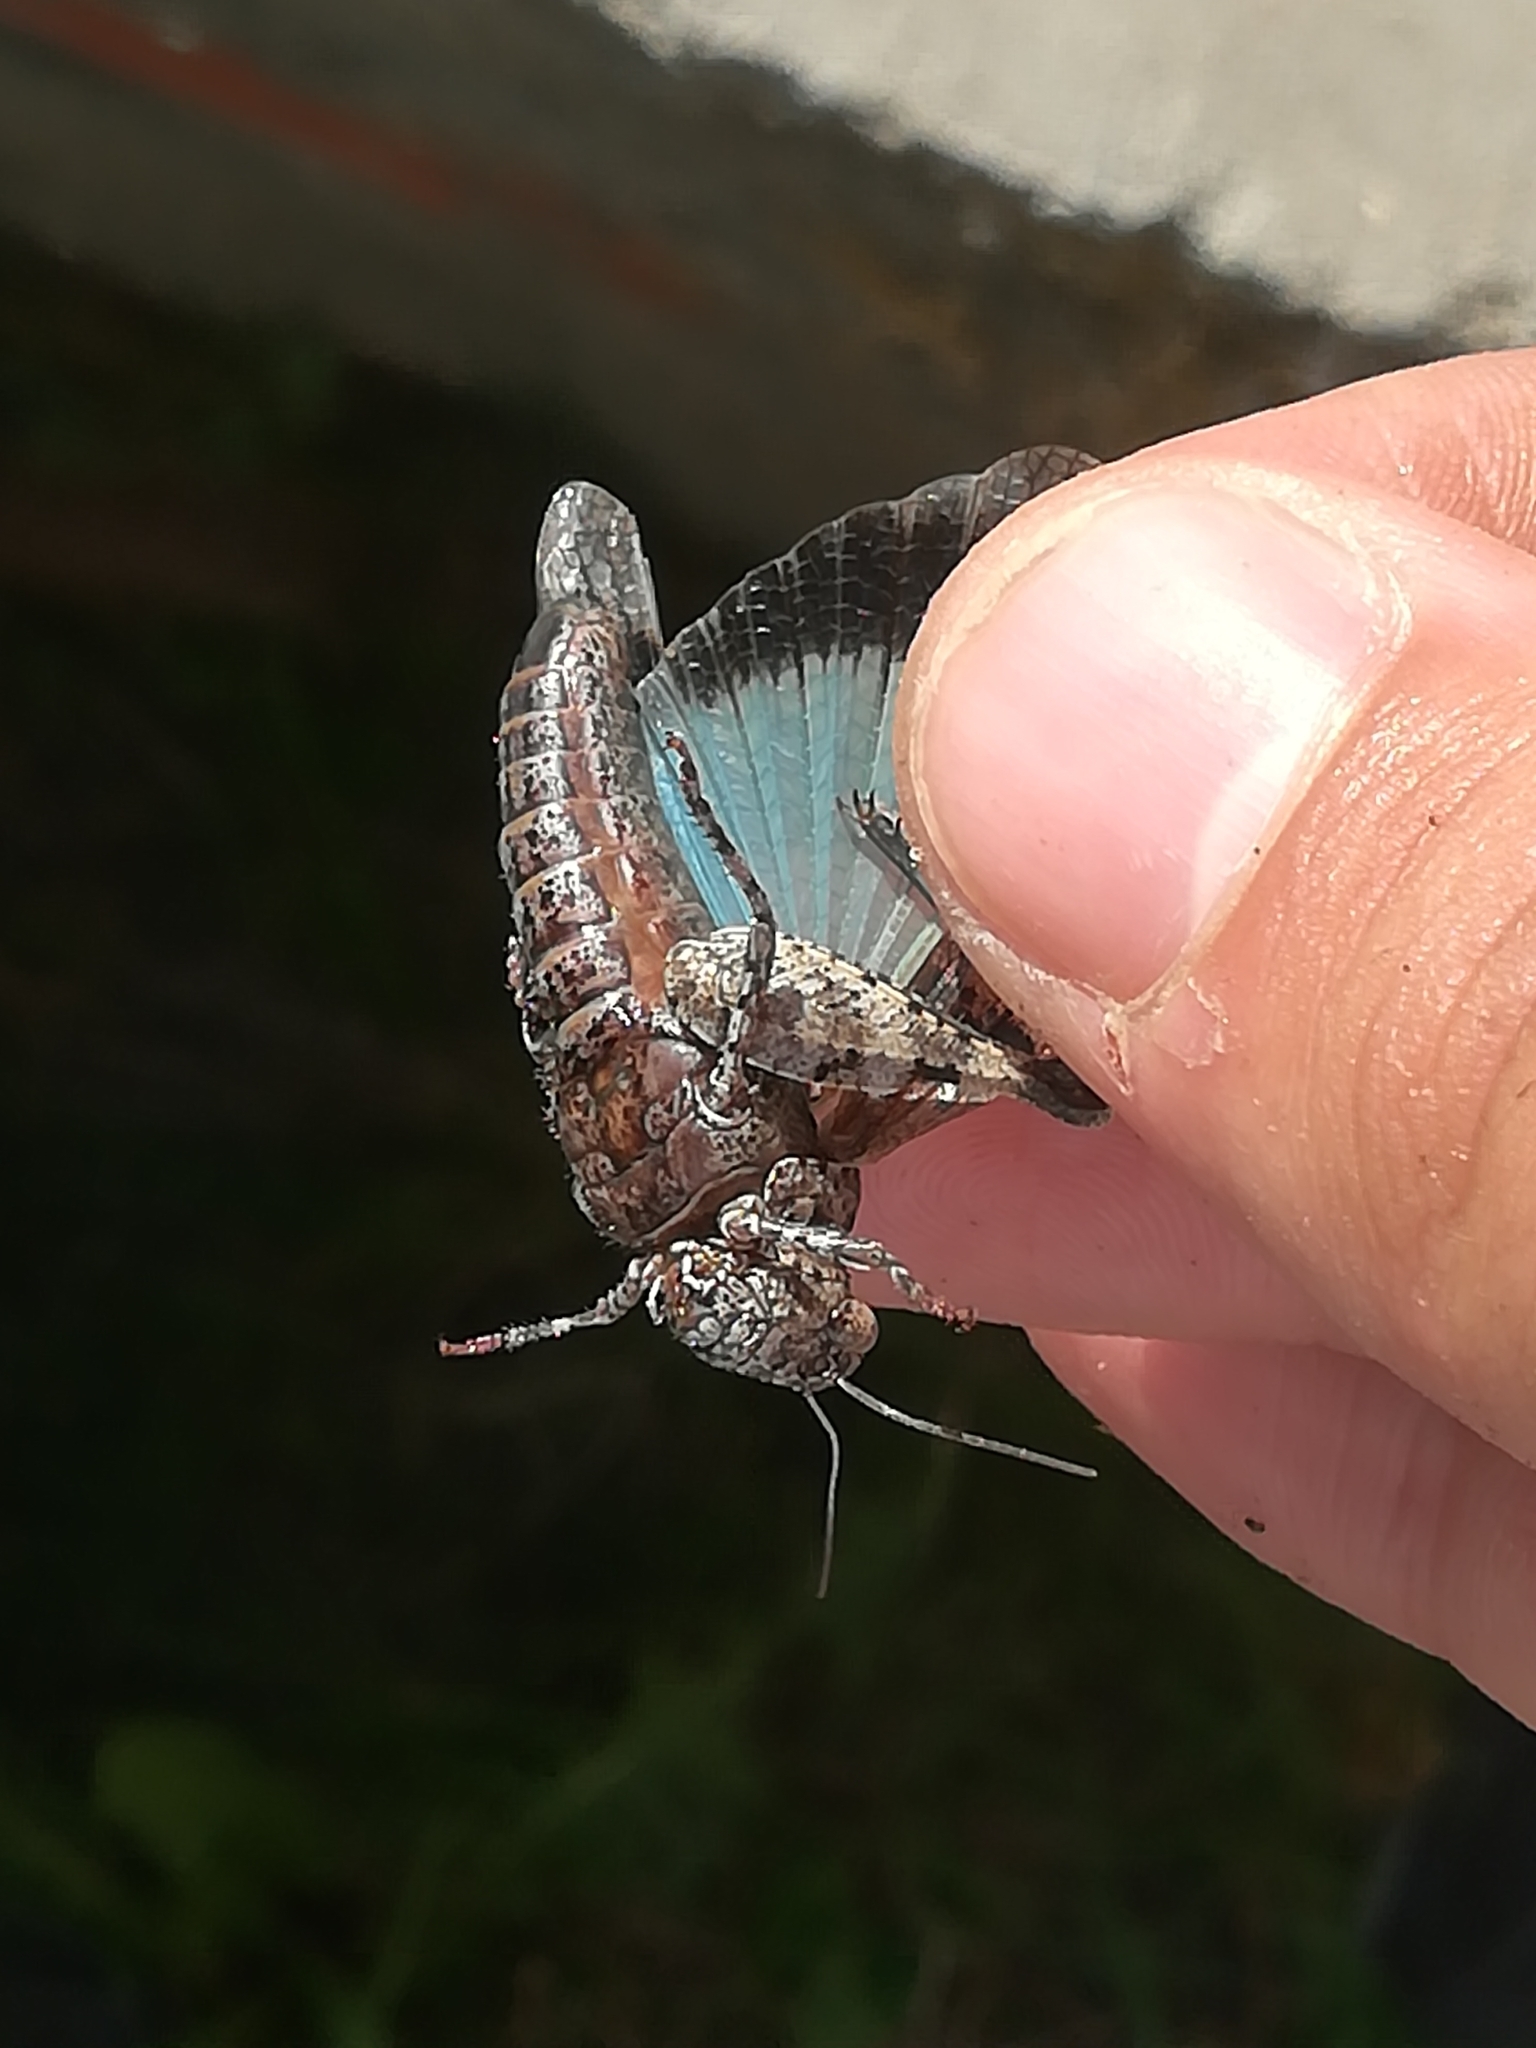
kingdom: Animalia
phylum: Arthropoda
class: Insecta
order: Orthoptera
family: Acrididae
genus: Oedipoda
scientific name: Oedipoda caerulescens
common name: Blue-winged grasshopper
